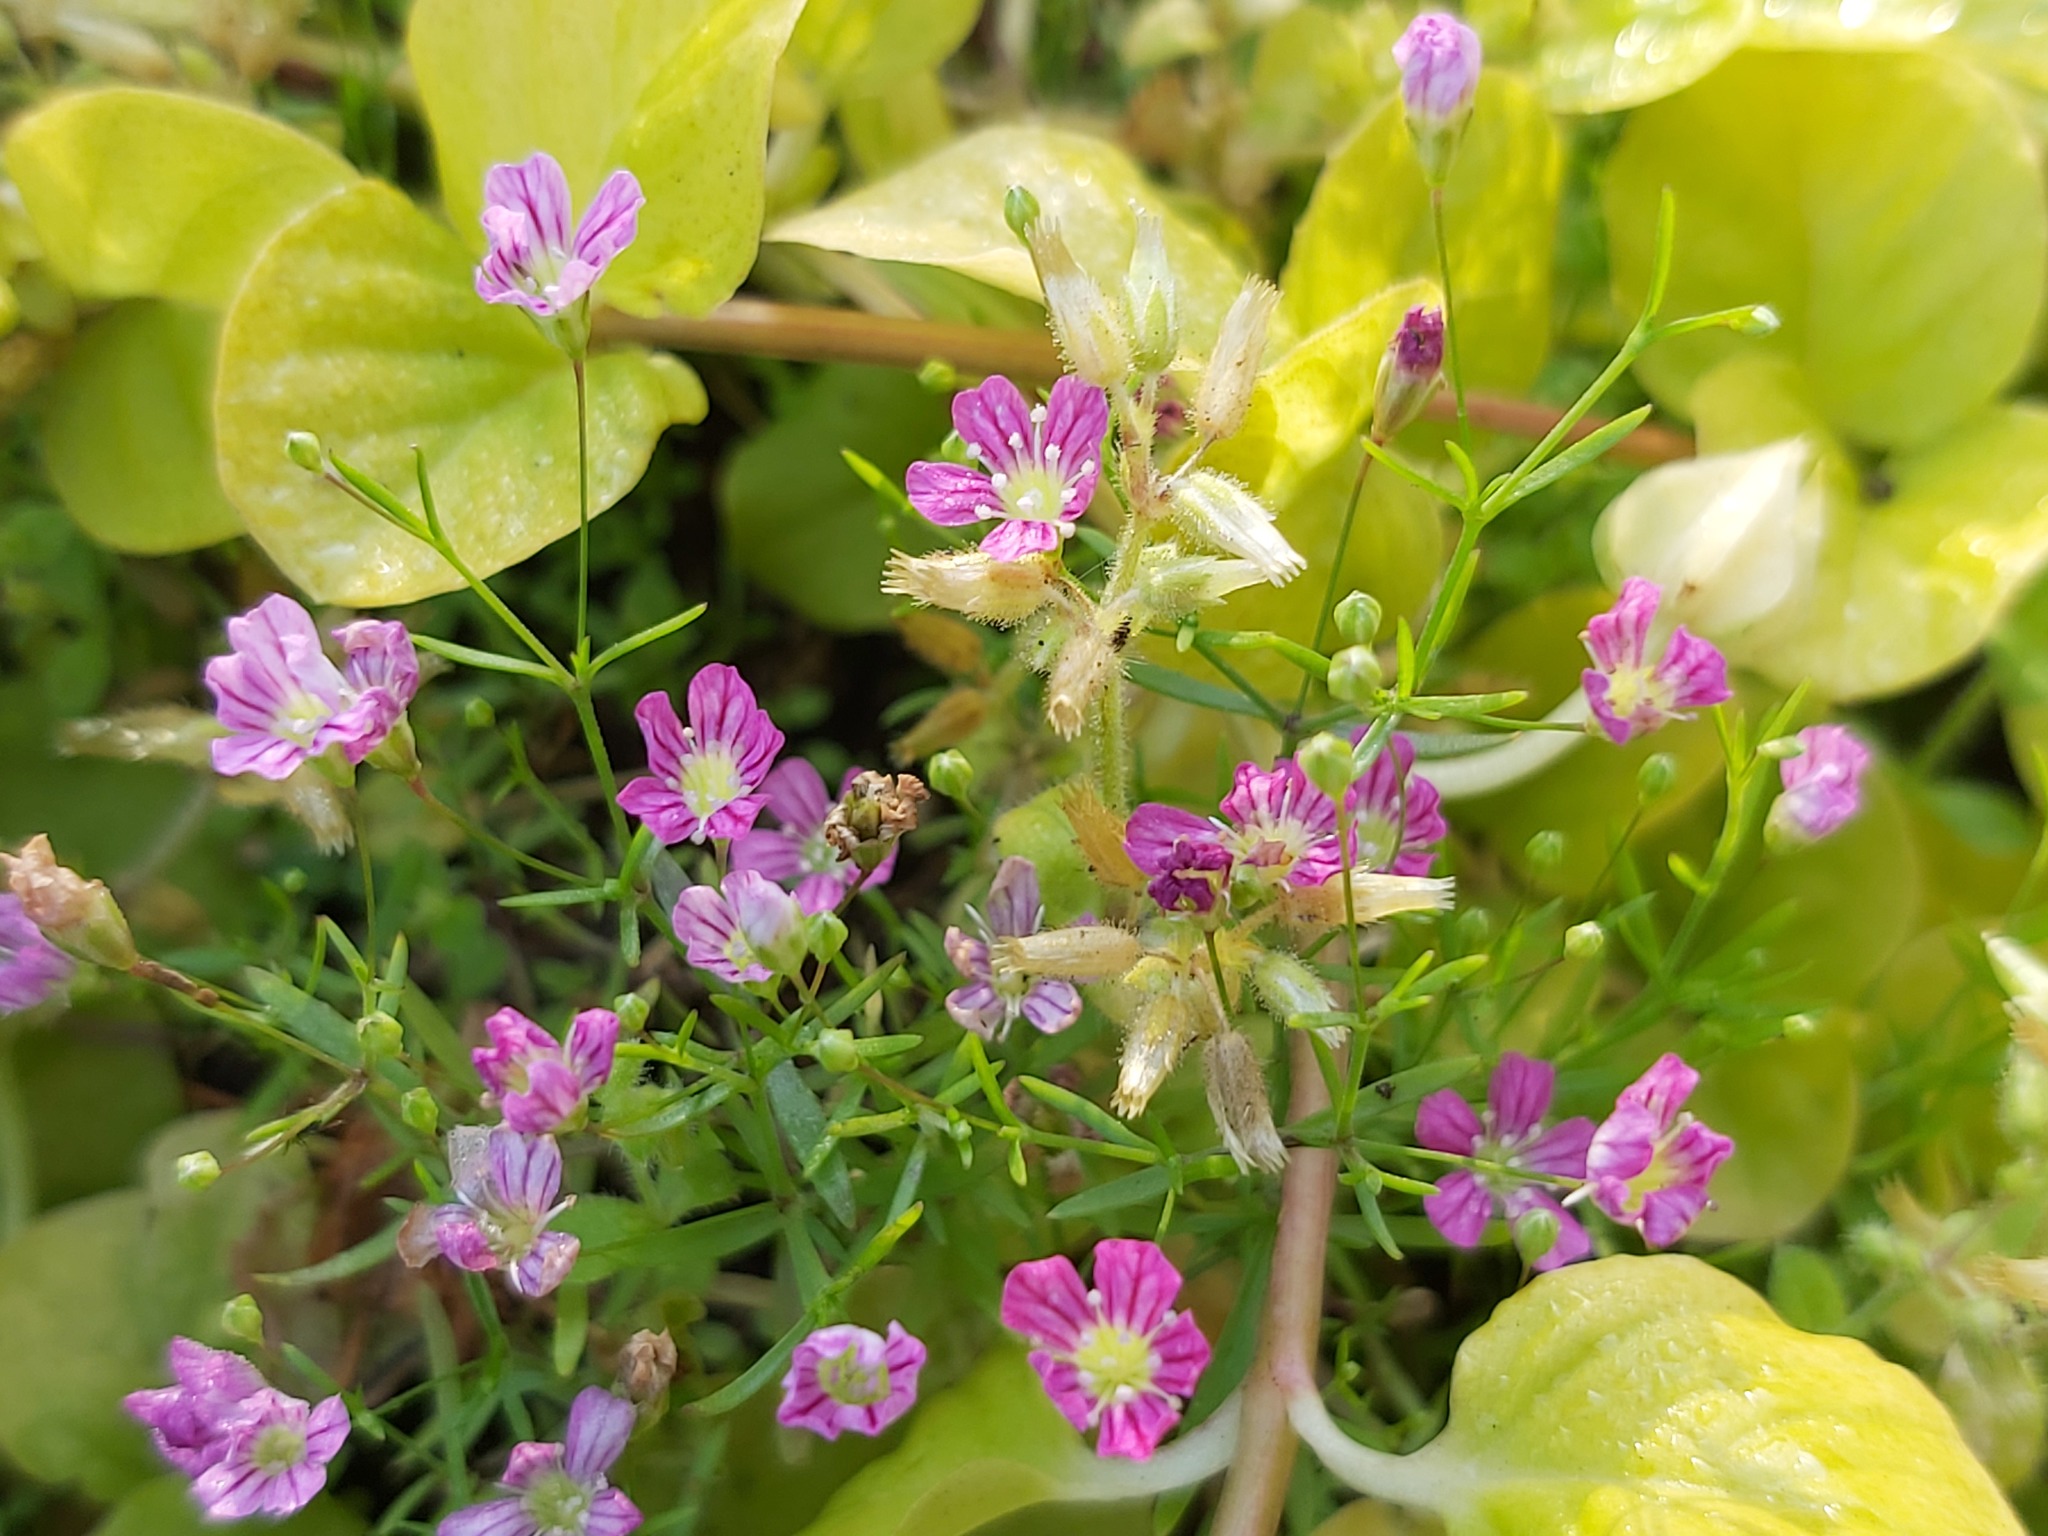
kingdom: Plantae
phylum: Tracheophyta
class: Magnoliopsida
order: Caryophyllales
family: Caryophyllaceae
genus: Psammophiliella
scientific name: Psammophiliella muralis
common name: Cushion baby's-breath
